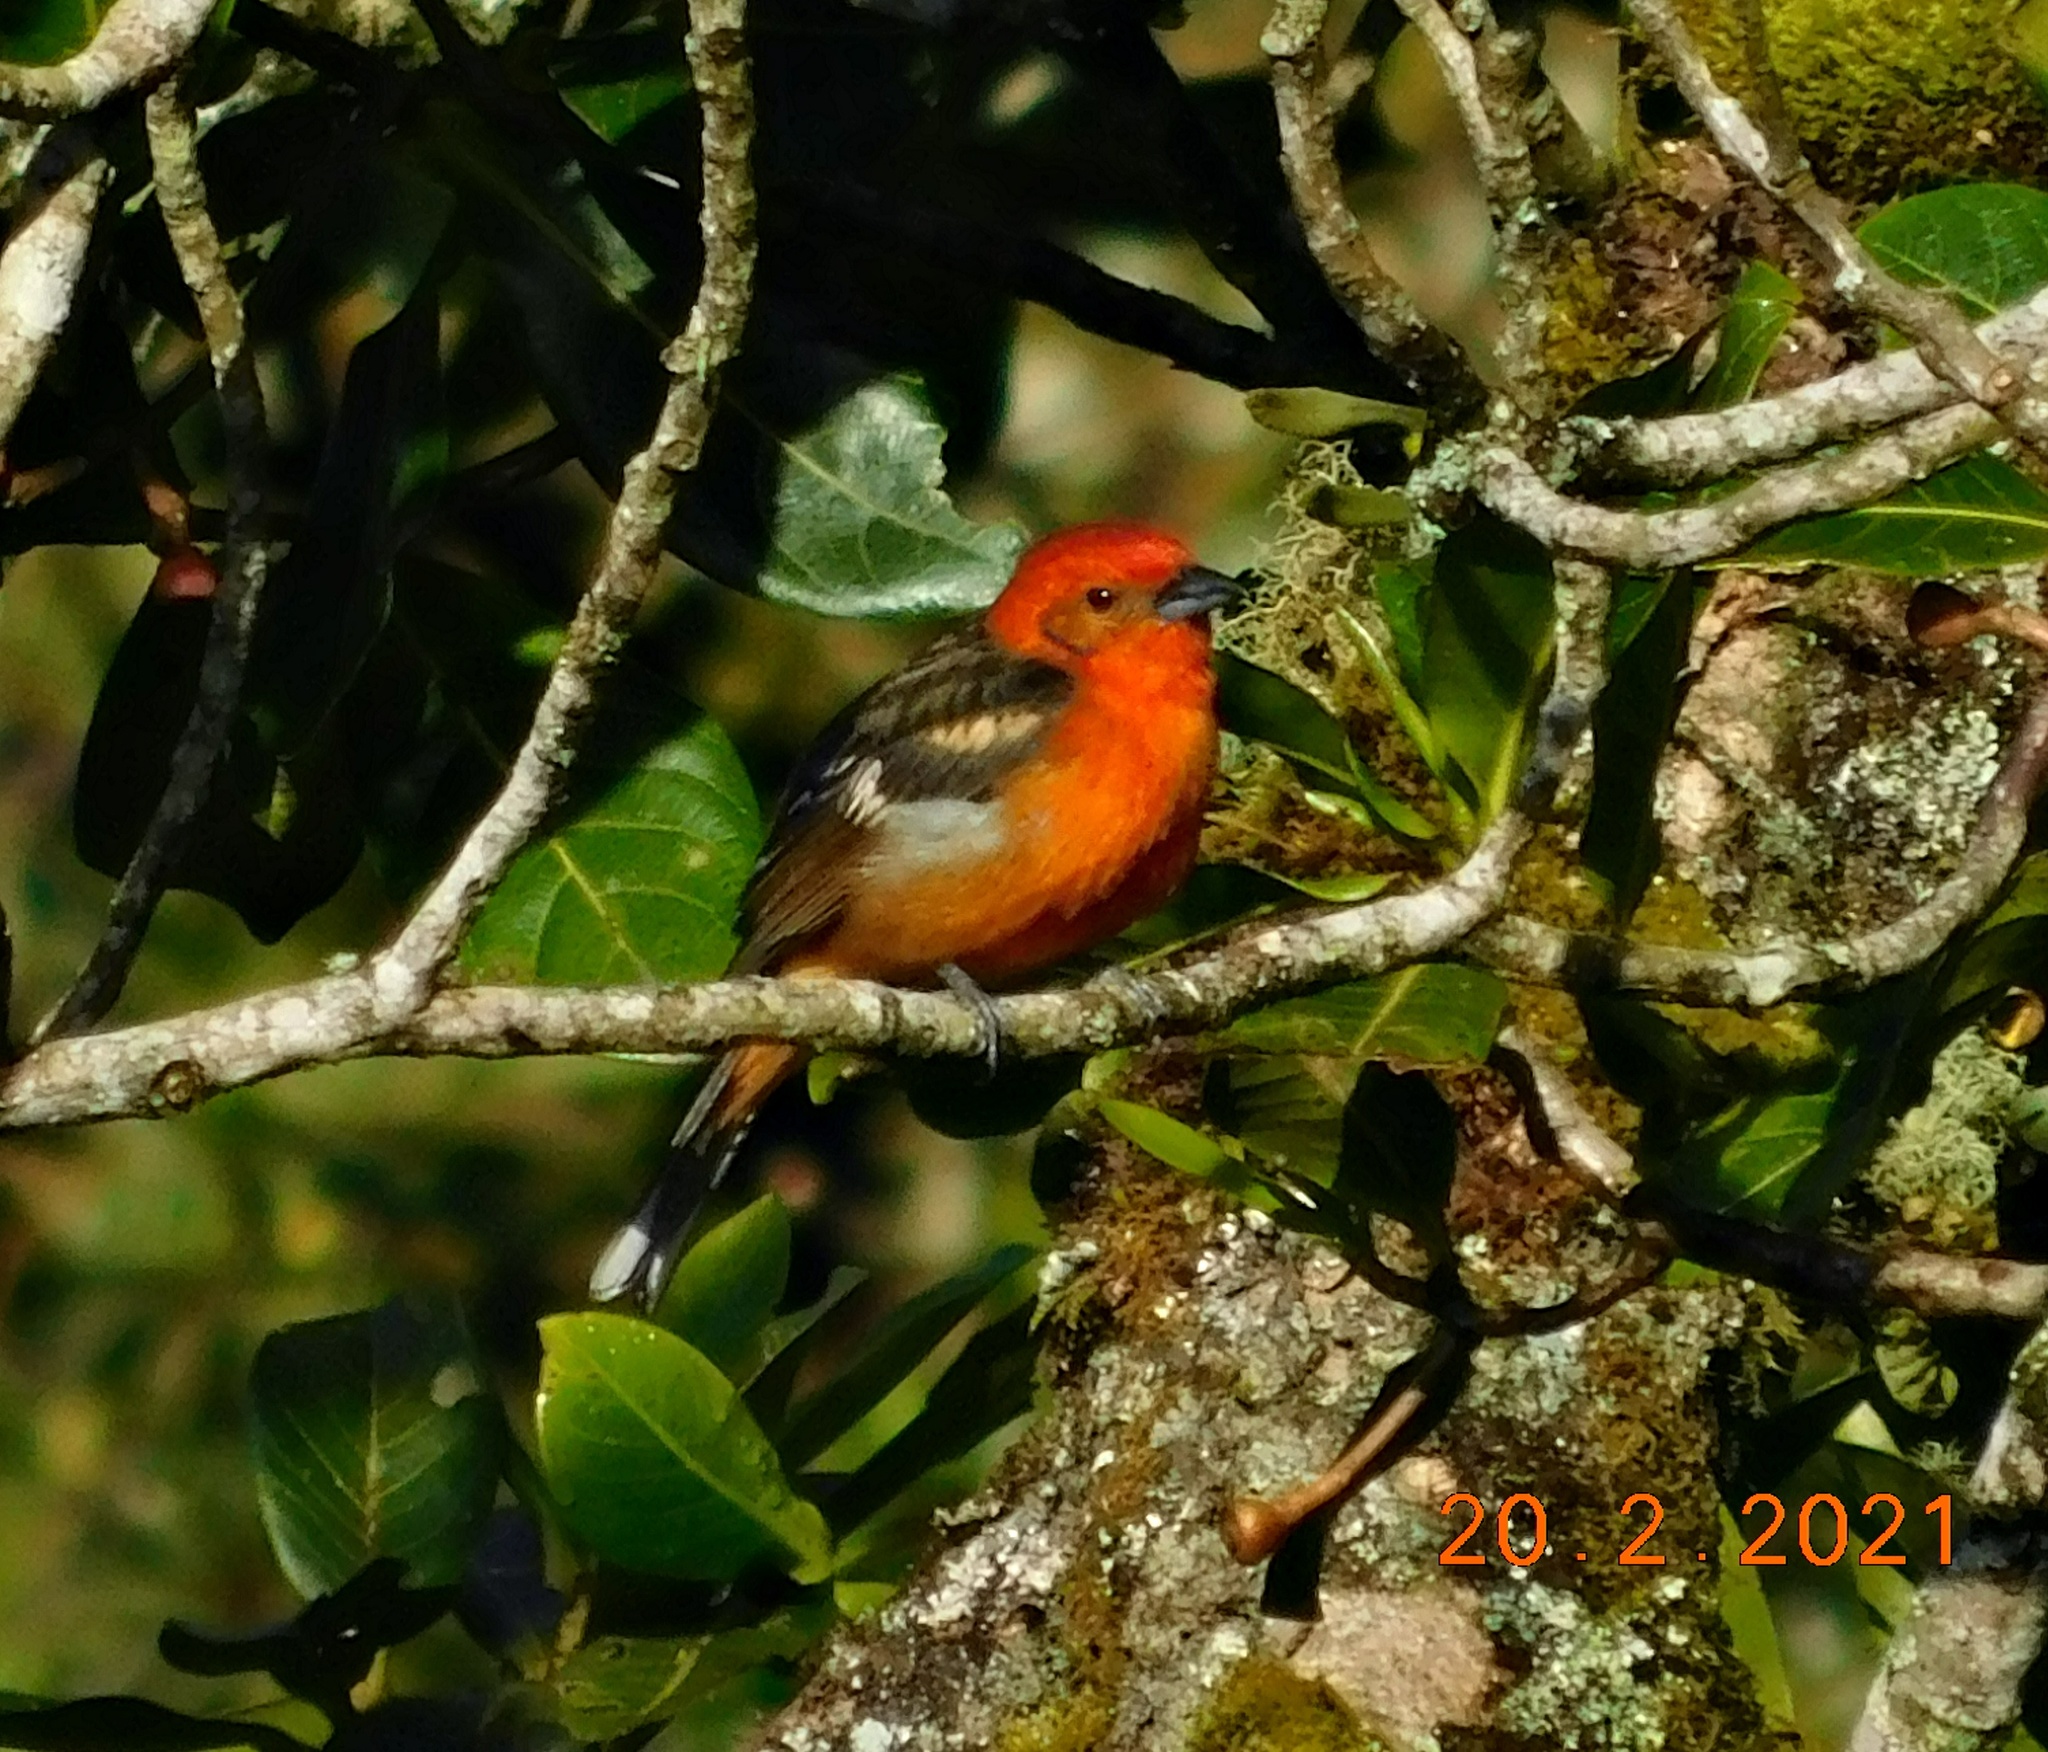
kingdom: Animalia
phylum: Chordata
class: Aves
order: Passeriformes
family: Cardinalidae
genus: Piranga
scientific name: Piranga bidentata
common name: Flame-colored tanager
